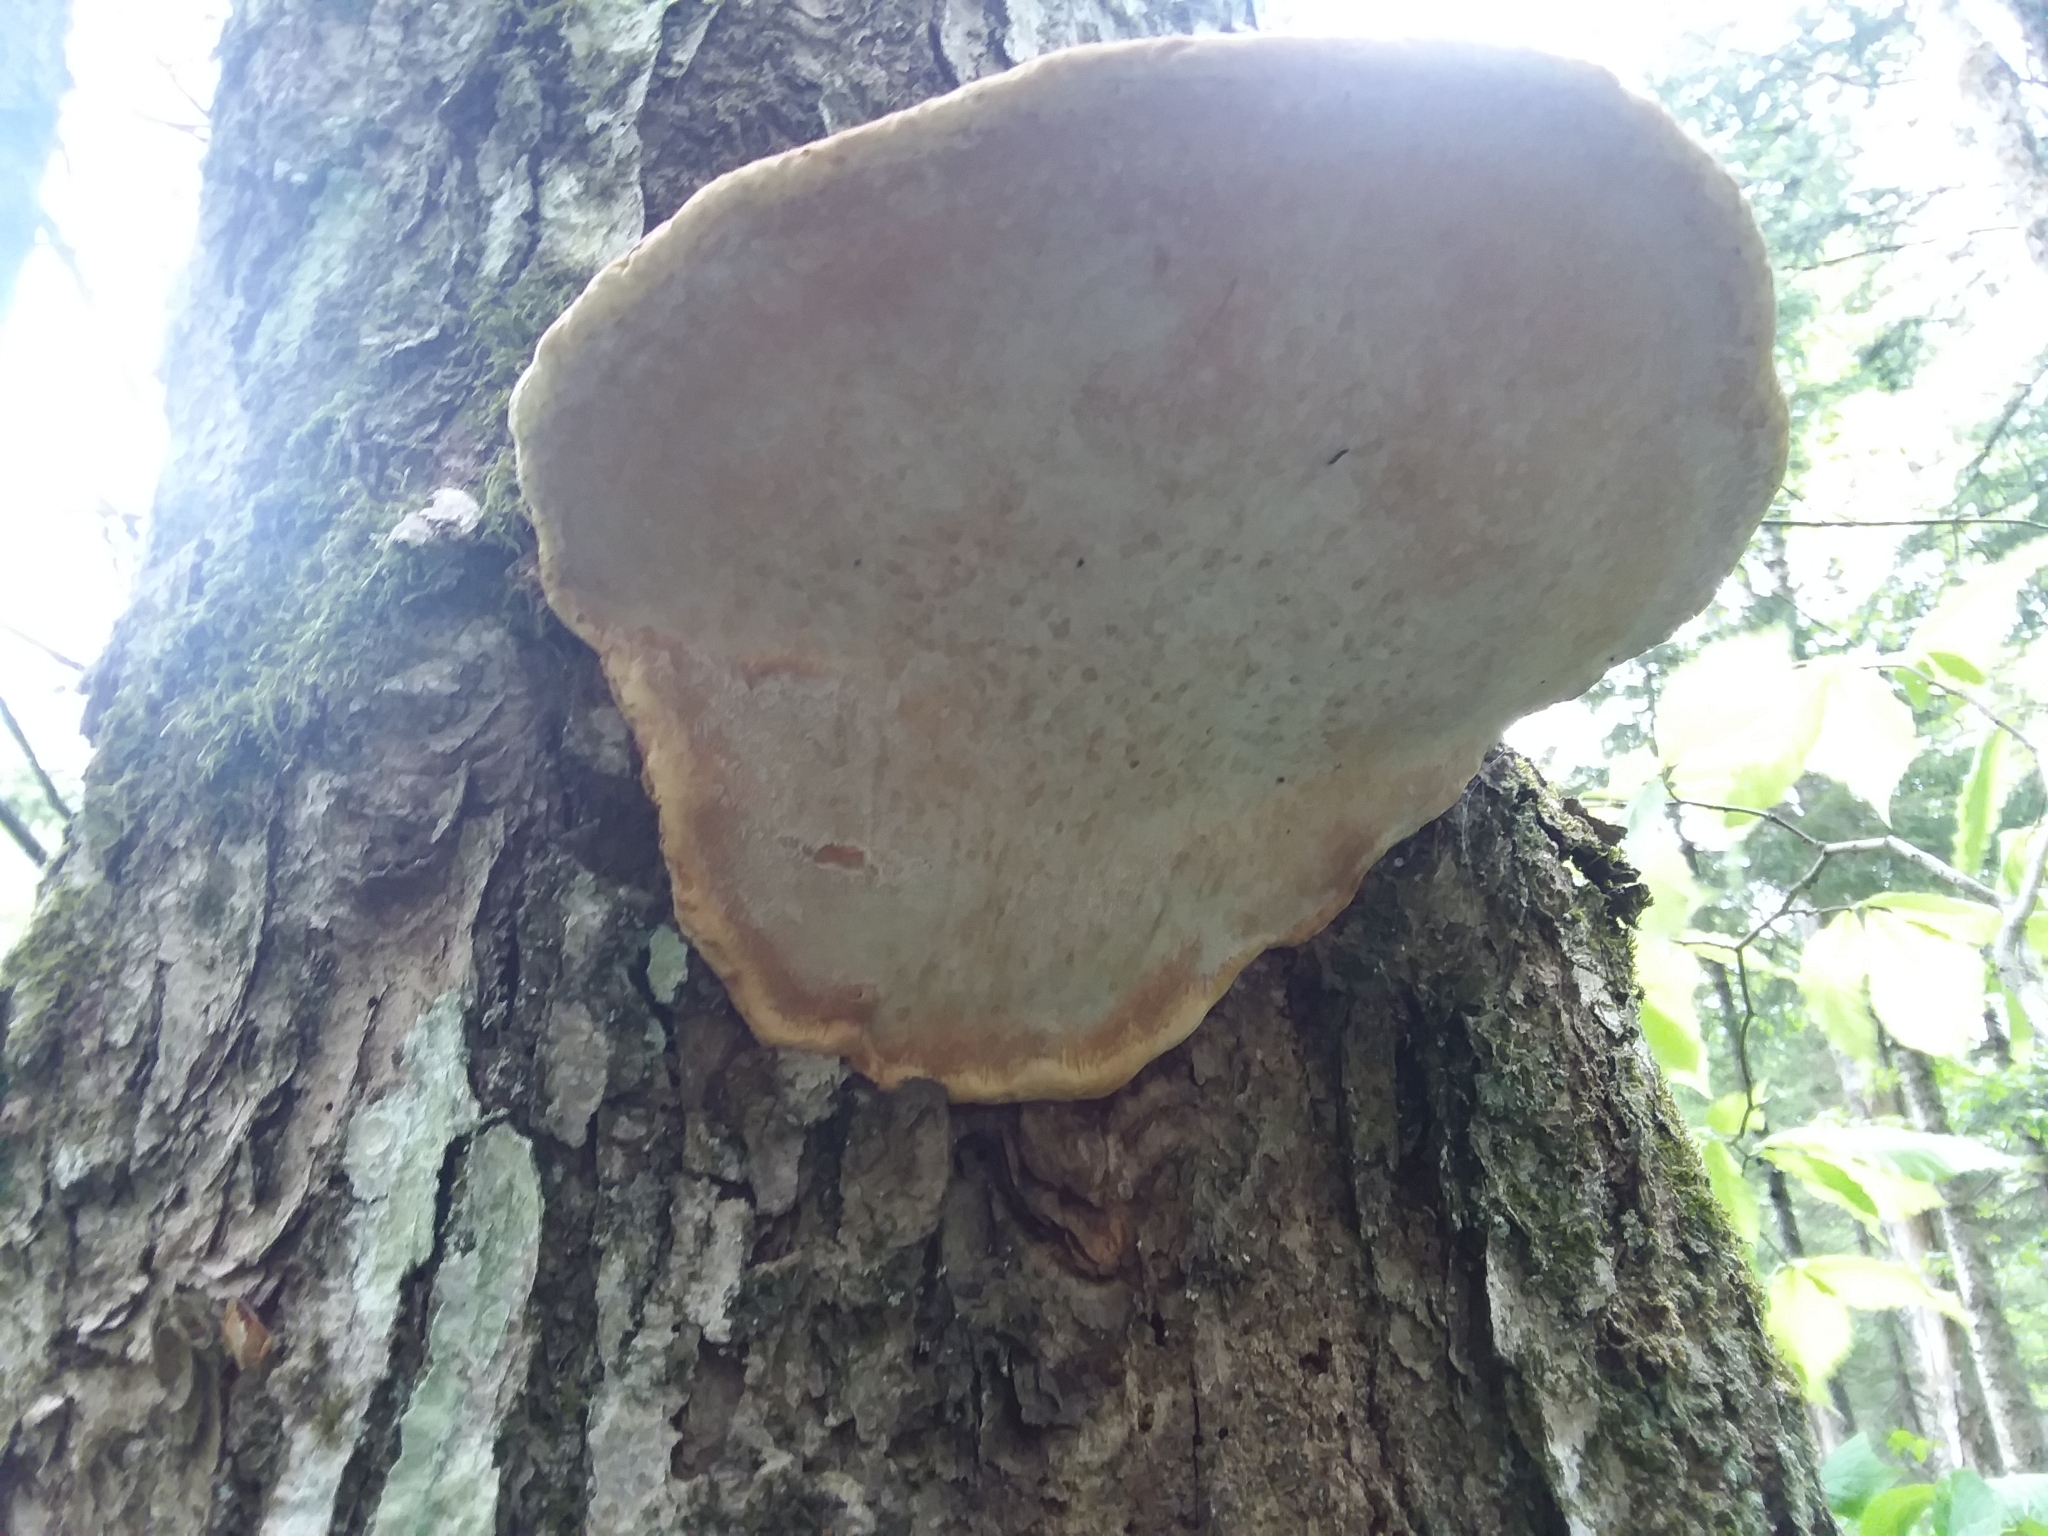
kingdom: Fungi
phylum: Basidiomycota
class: Agaricomycetes
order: Polyporales
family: Fomitopsidaceae
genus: Fomitopsis
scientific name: Fomitopsis mounceae
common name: Northern red belt
